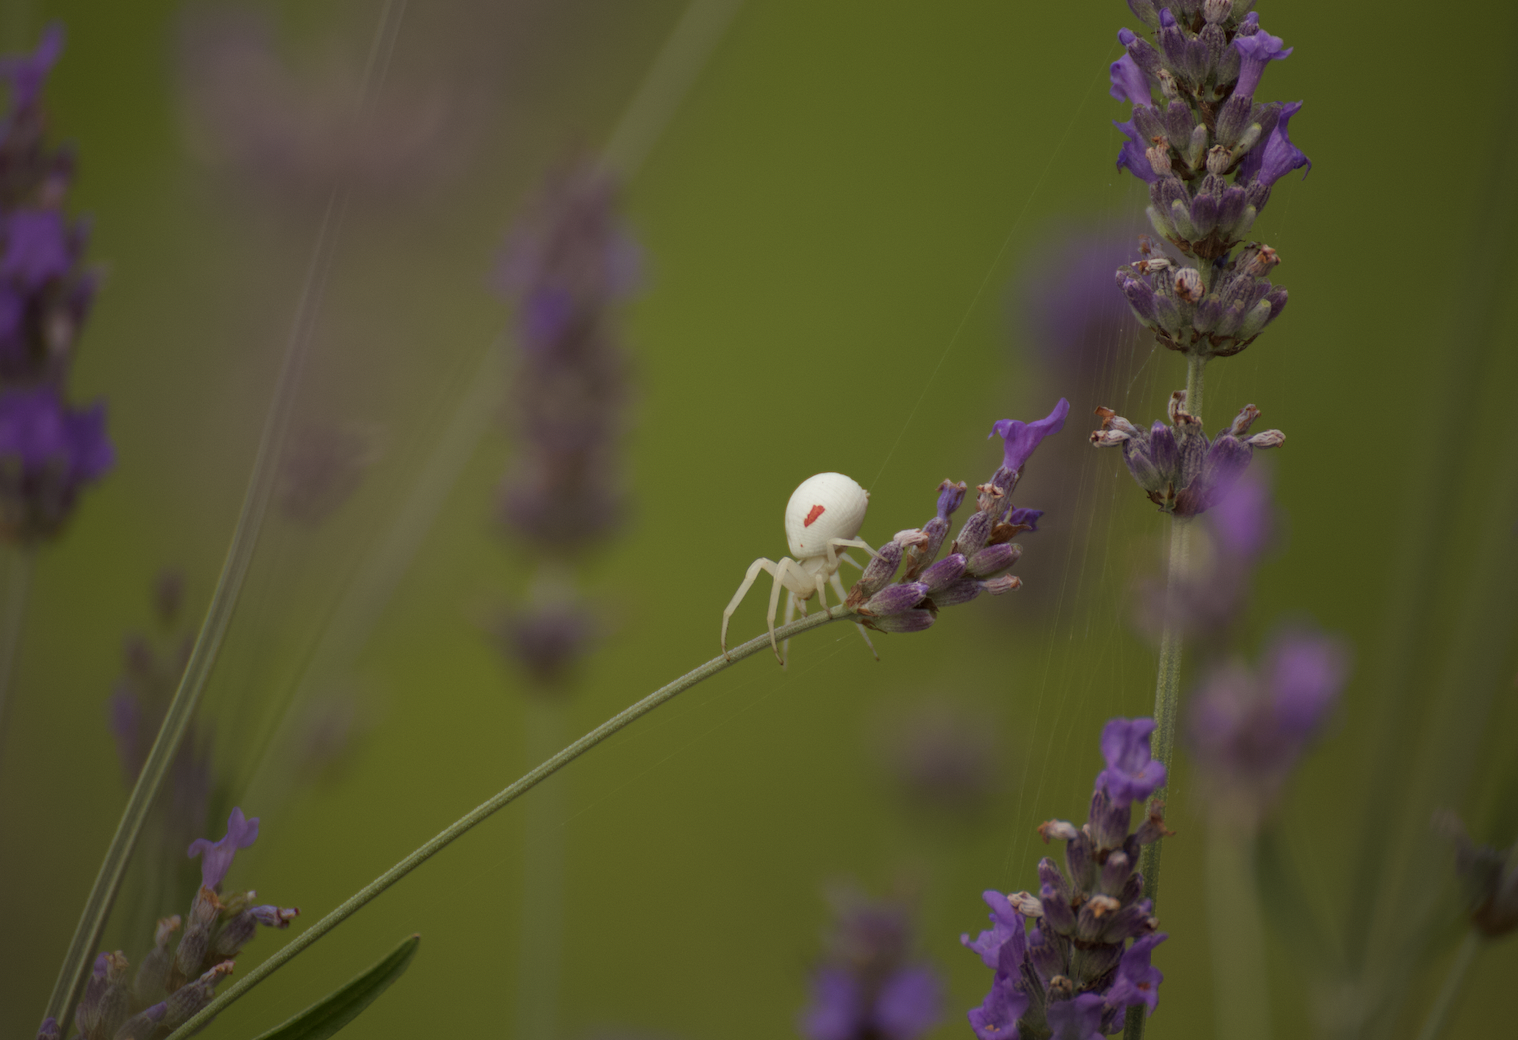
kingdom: Animalia
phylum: Arthropoda
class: Arachnida
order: Araneae
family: Thomisidae
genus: Misumena
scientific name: Misumena vatia
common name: Goldenrod crab spider
